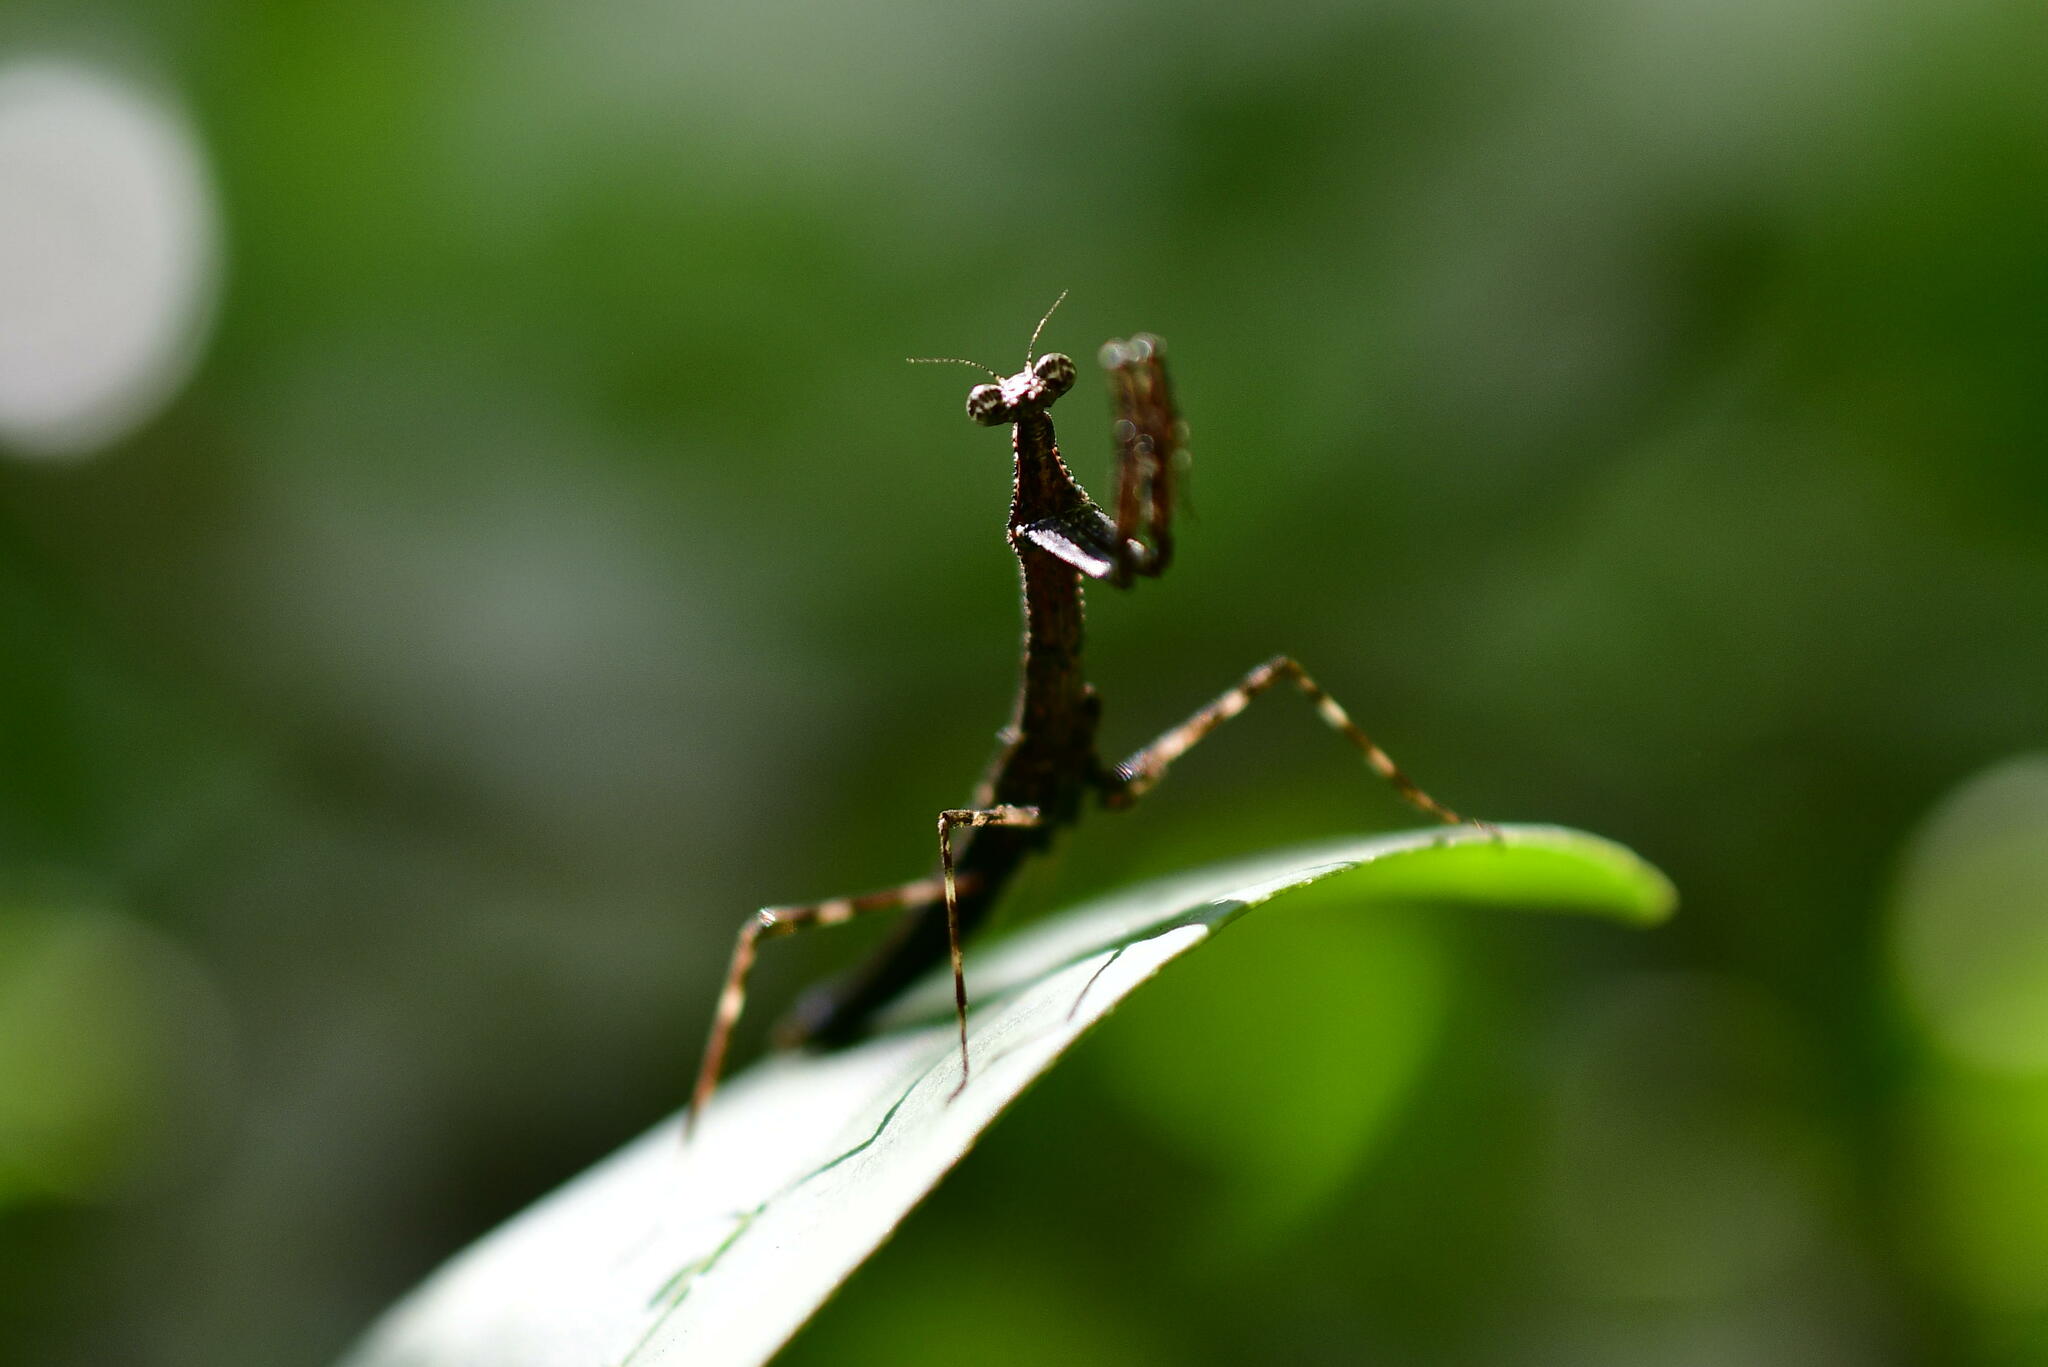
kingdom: Animalia
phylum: Arthropoda
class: Insecta
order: Mantodea
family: Mantidae
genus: Stagmomantis
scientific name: Stagmomantis carolina
